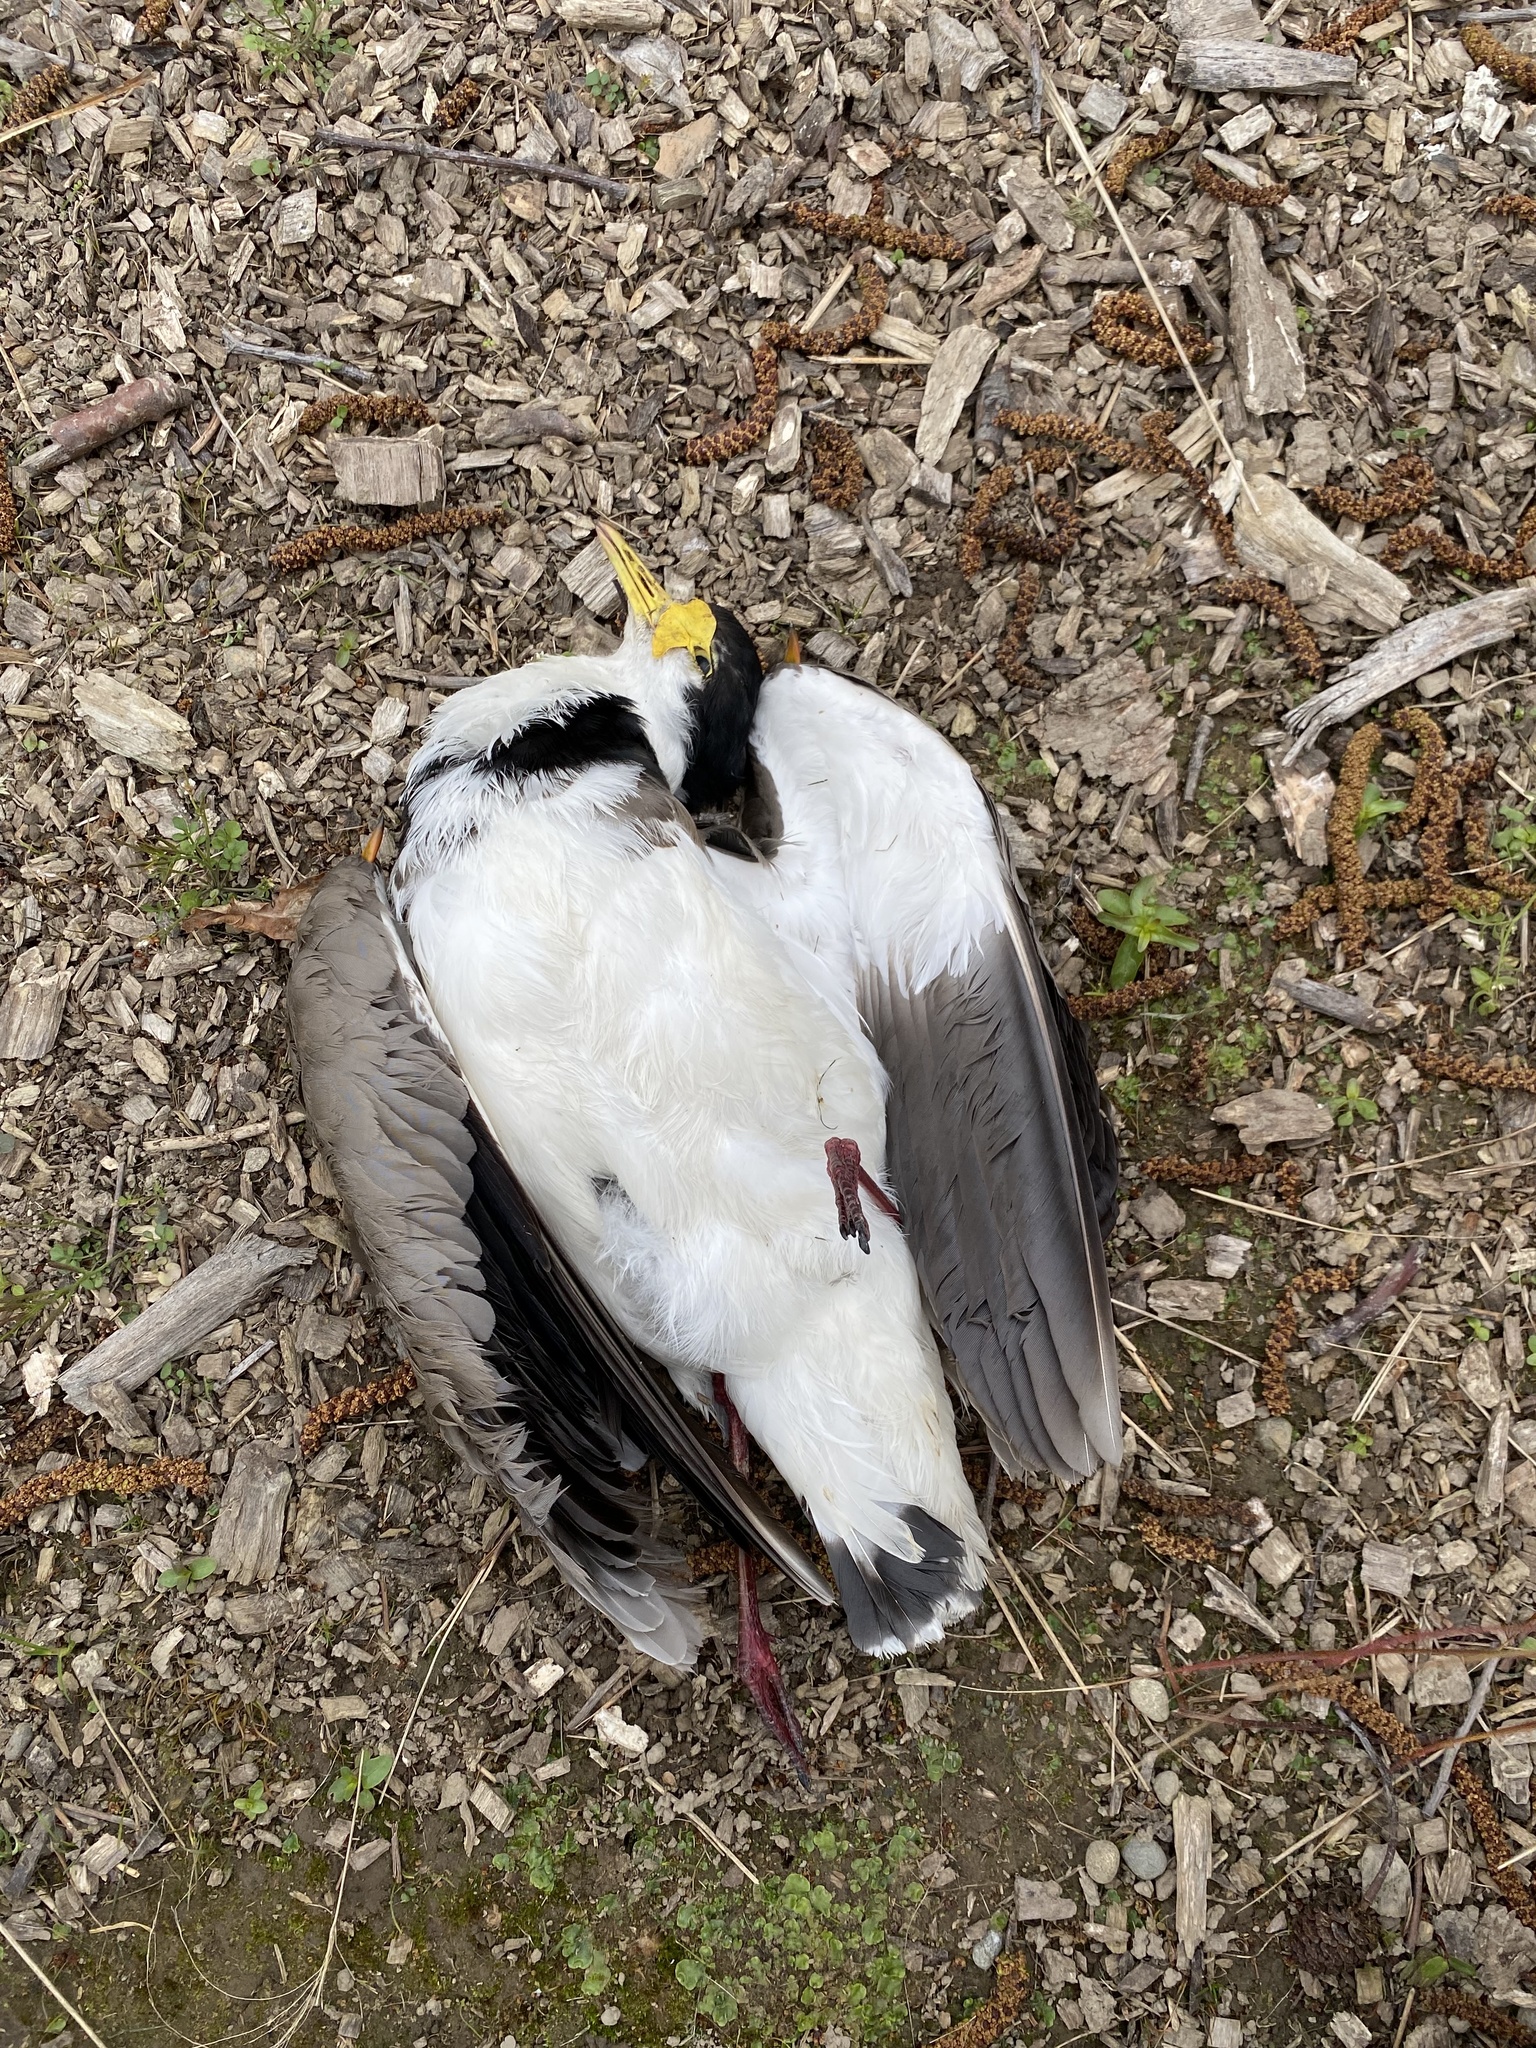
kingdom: Animalia
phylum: Chordata
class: Aves
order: Charadriiformes
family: Charadriidae
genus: Vanellus
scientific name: Vanellus miles
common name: Masked lapwing
